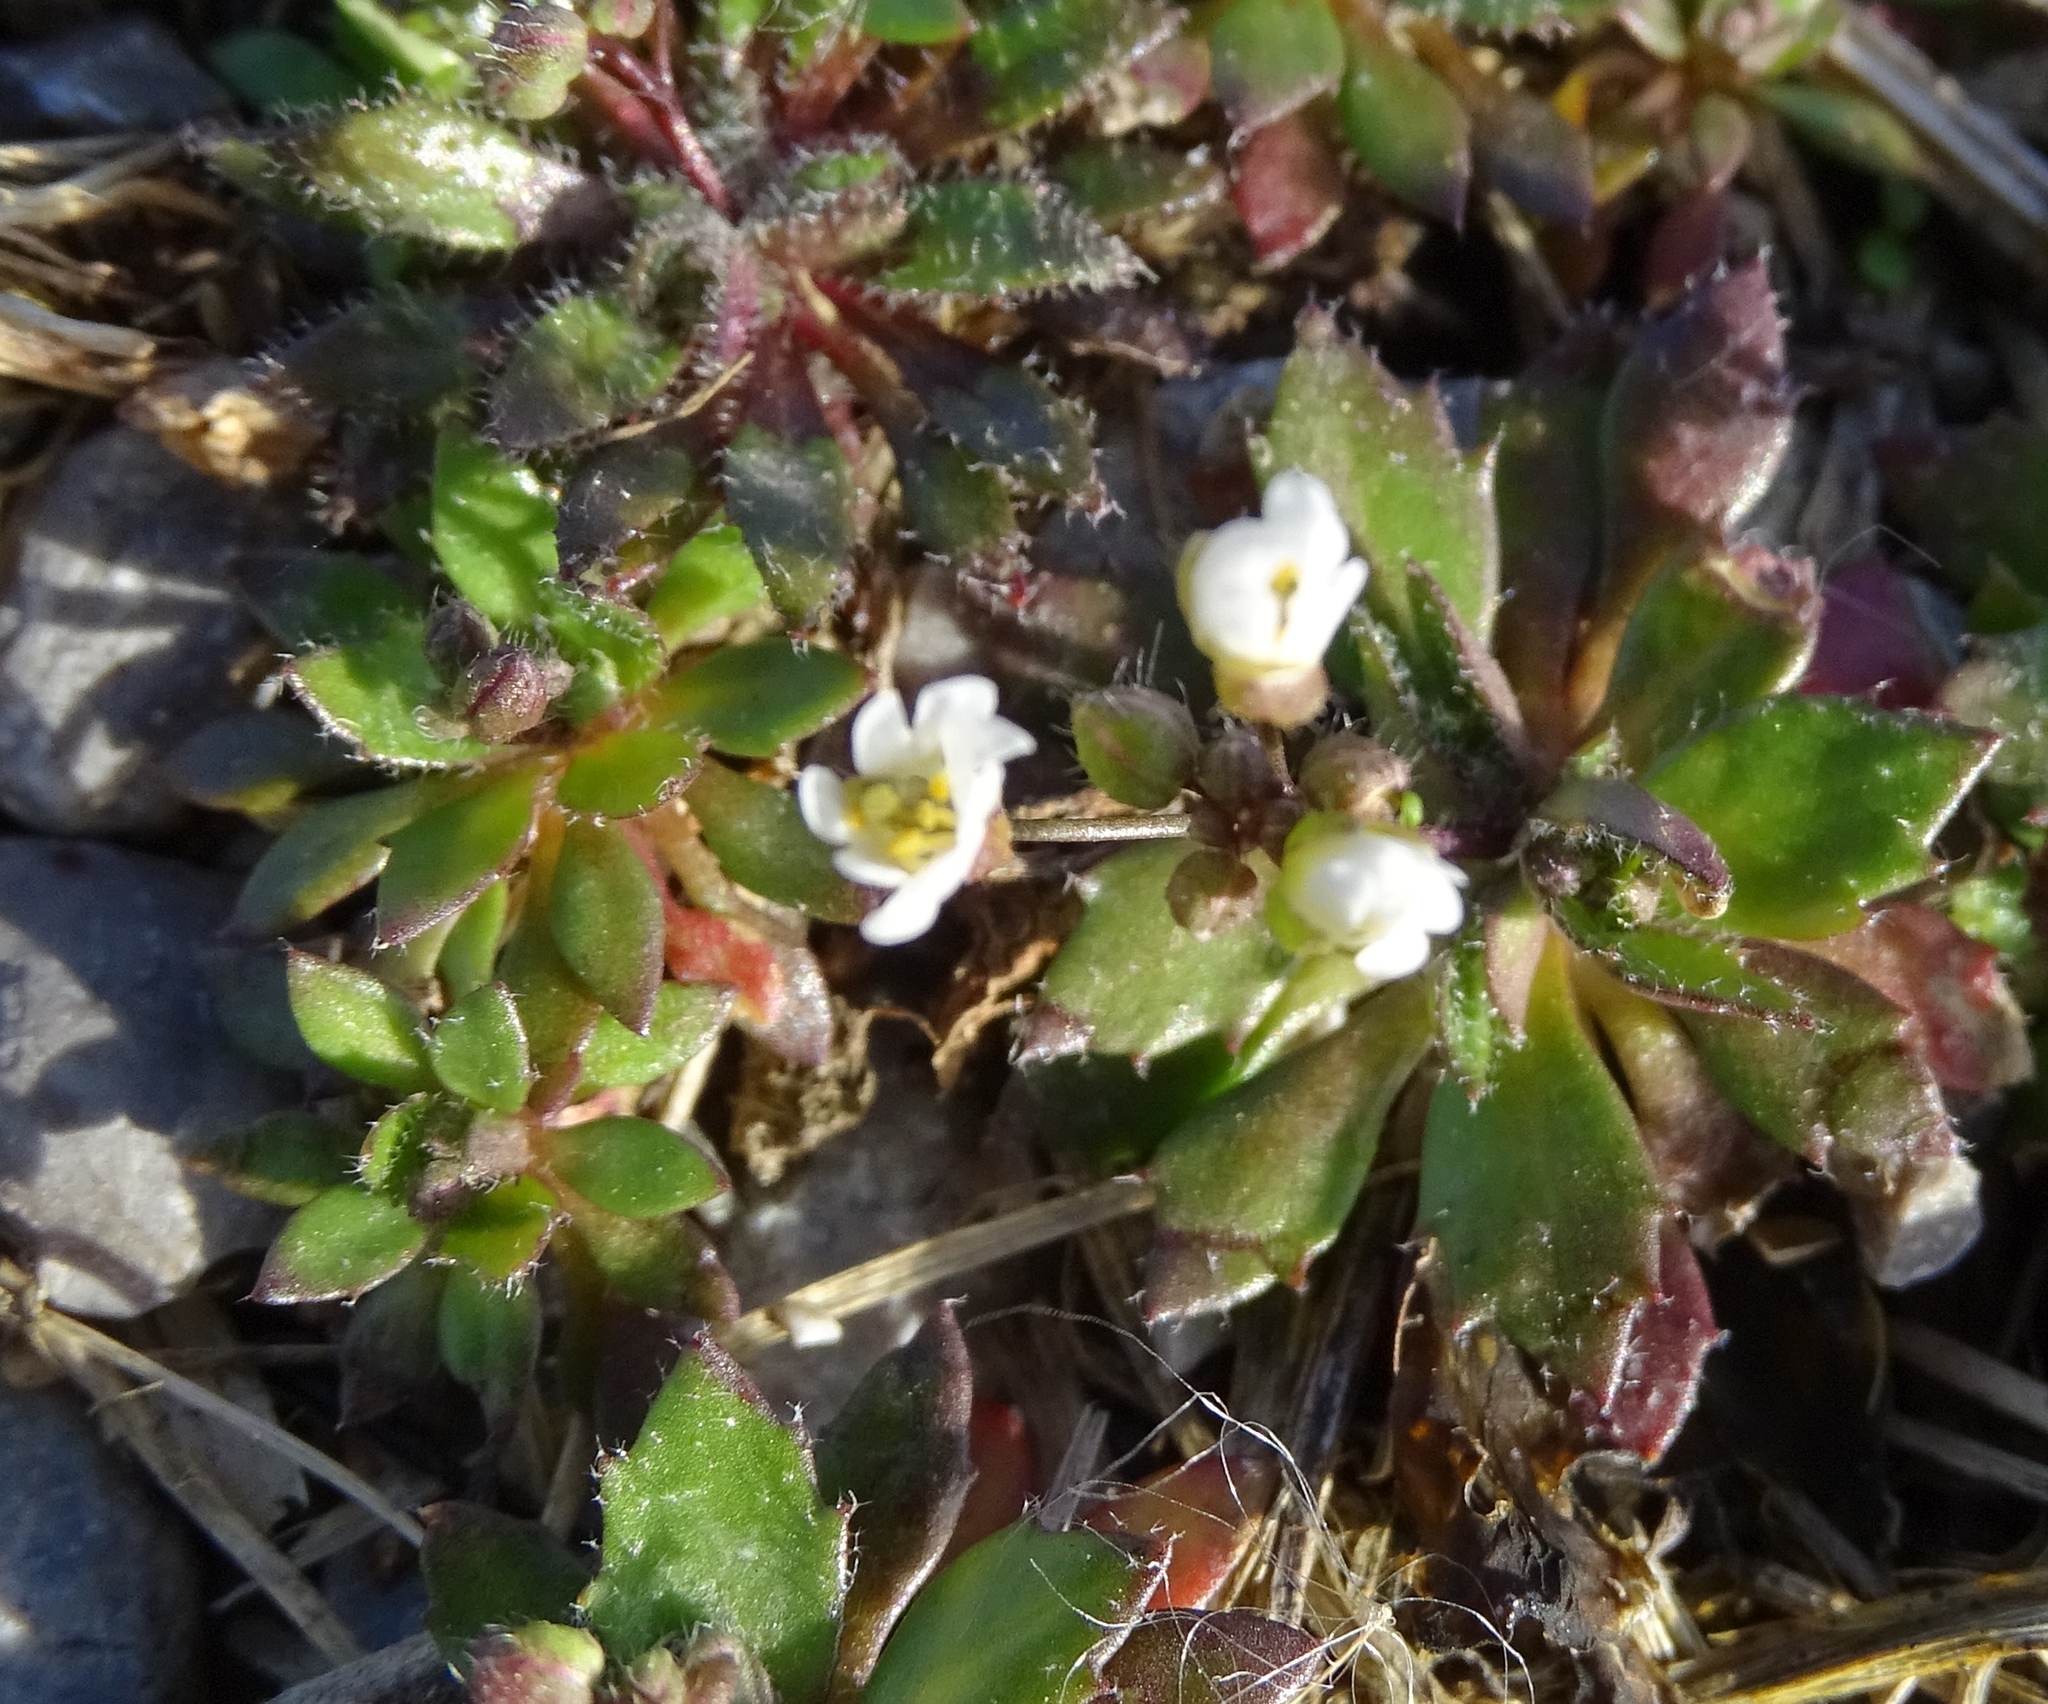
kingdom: Plantae
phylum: Tracheophyta
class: Magnoliopsida
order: Brassicales
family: Brassicaceae
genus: Draba
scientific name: Draba verna
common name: Spring draba
